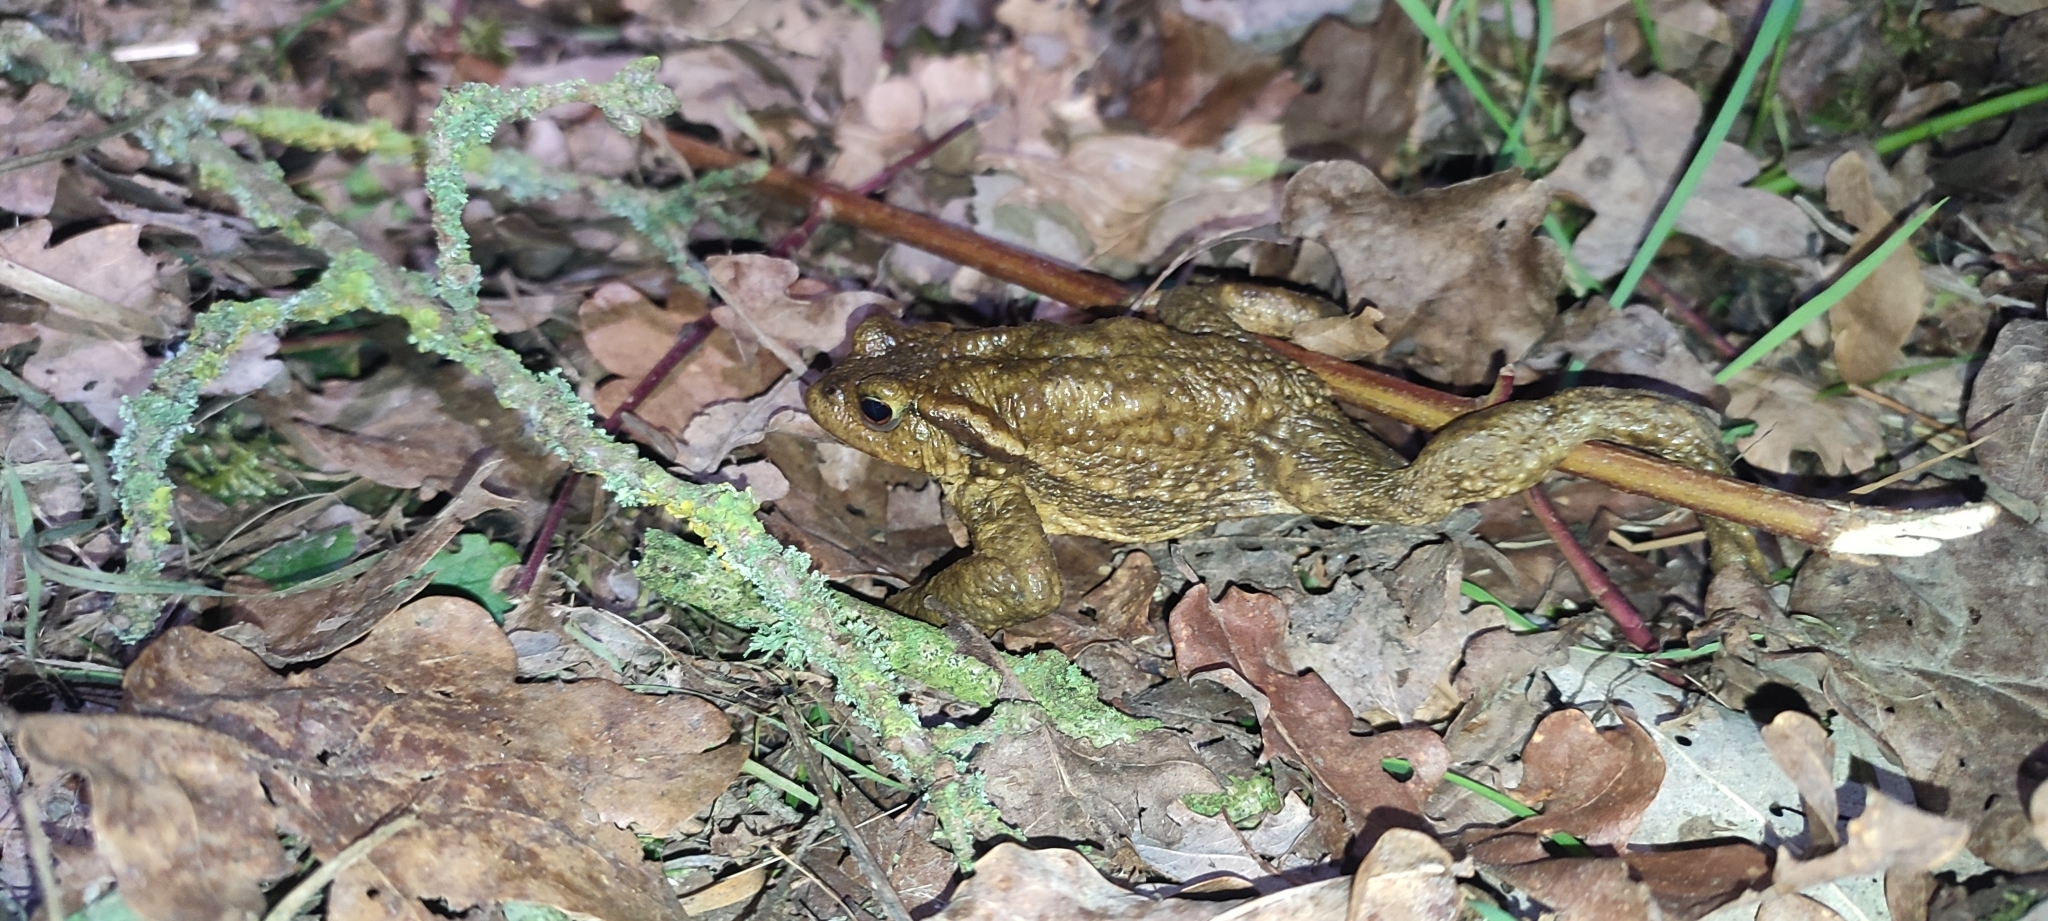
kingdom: Animalia
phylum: Chordata
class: Amphibia
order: Anura
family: Bufonidae
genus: Bufo
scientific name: Bufo spinosus
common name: Western common toad
